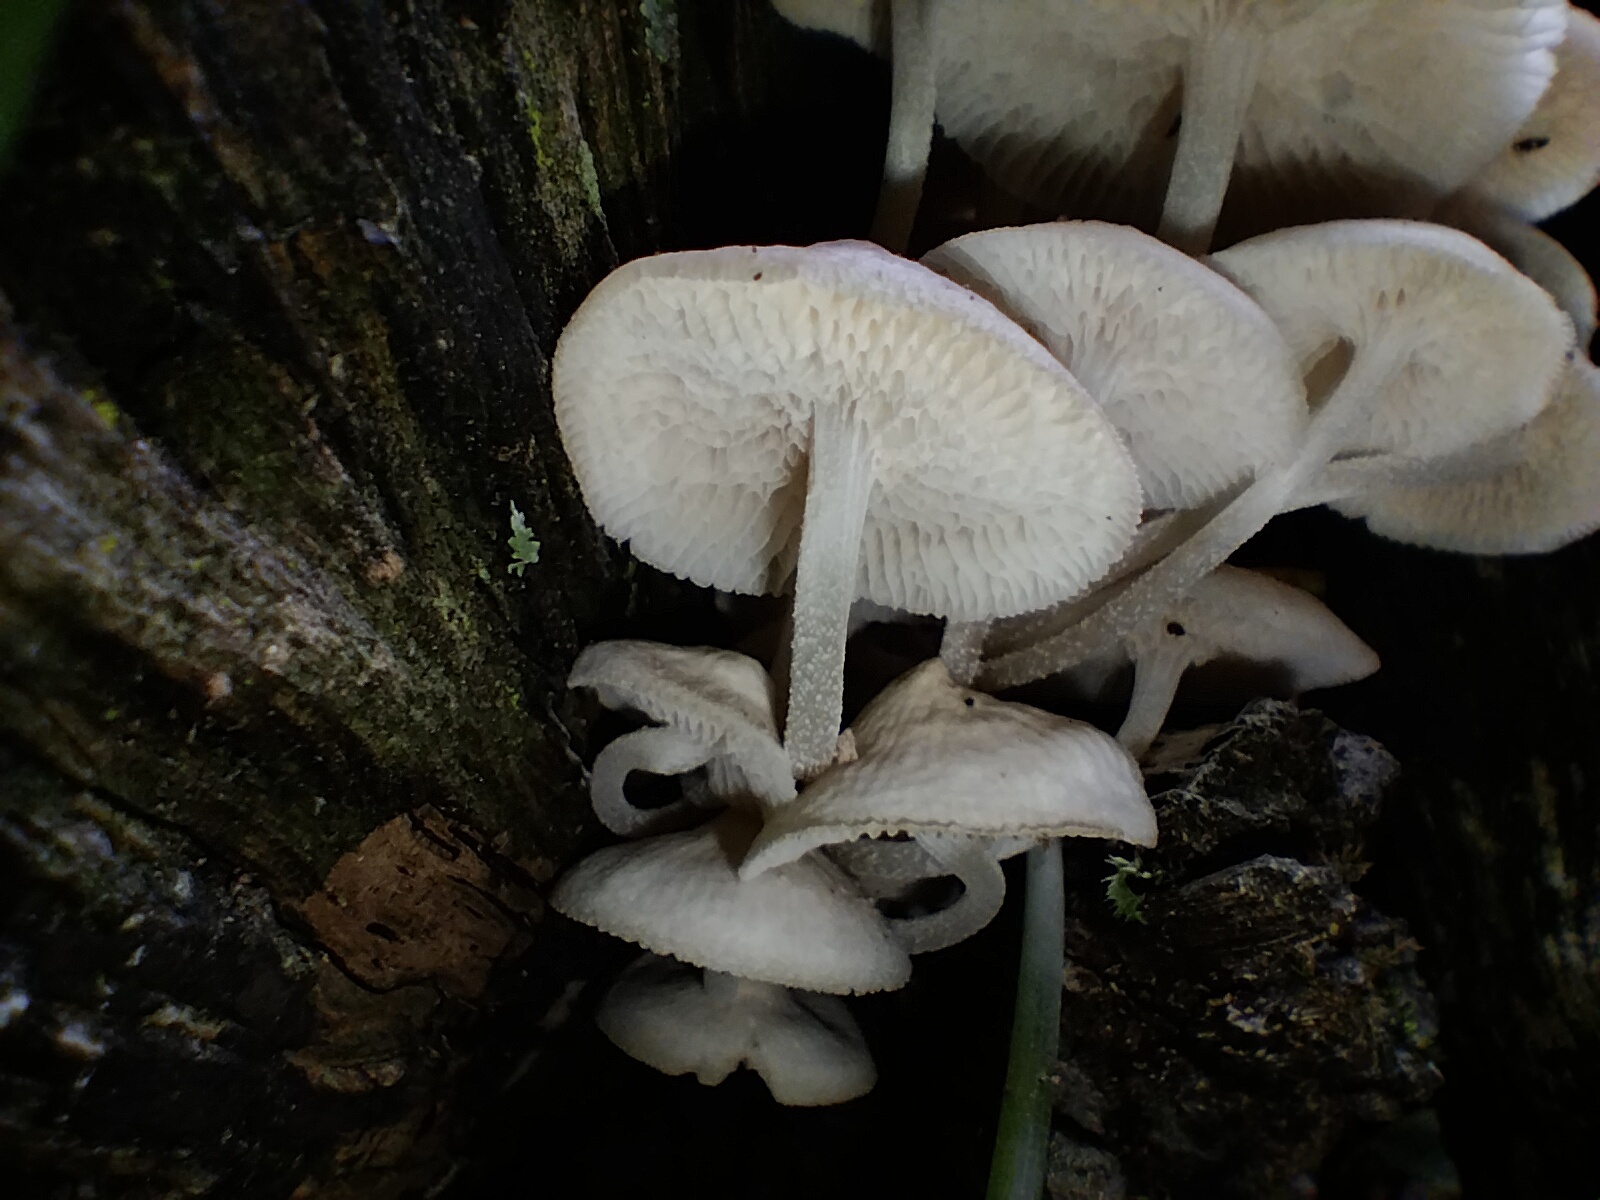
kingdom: Fungi
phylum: Basidiomycota
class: Agaricomycetes
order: Agaricales
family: Mycenaceae
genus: Filoboletus
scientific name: Filoboletus manipularis
